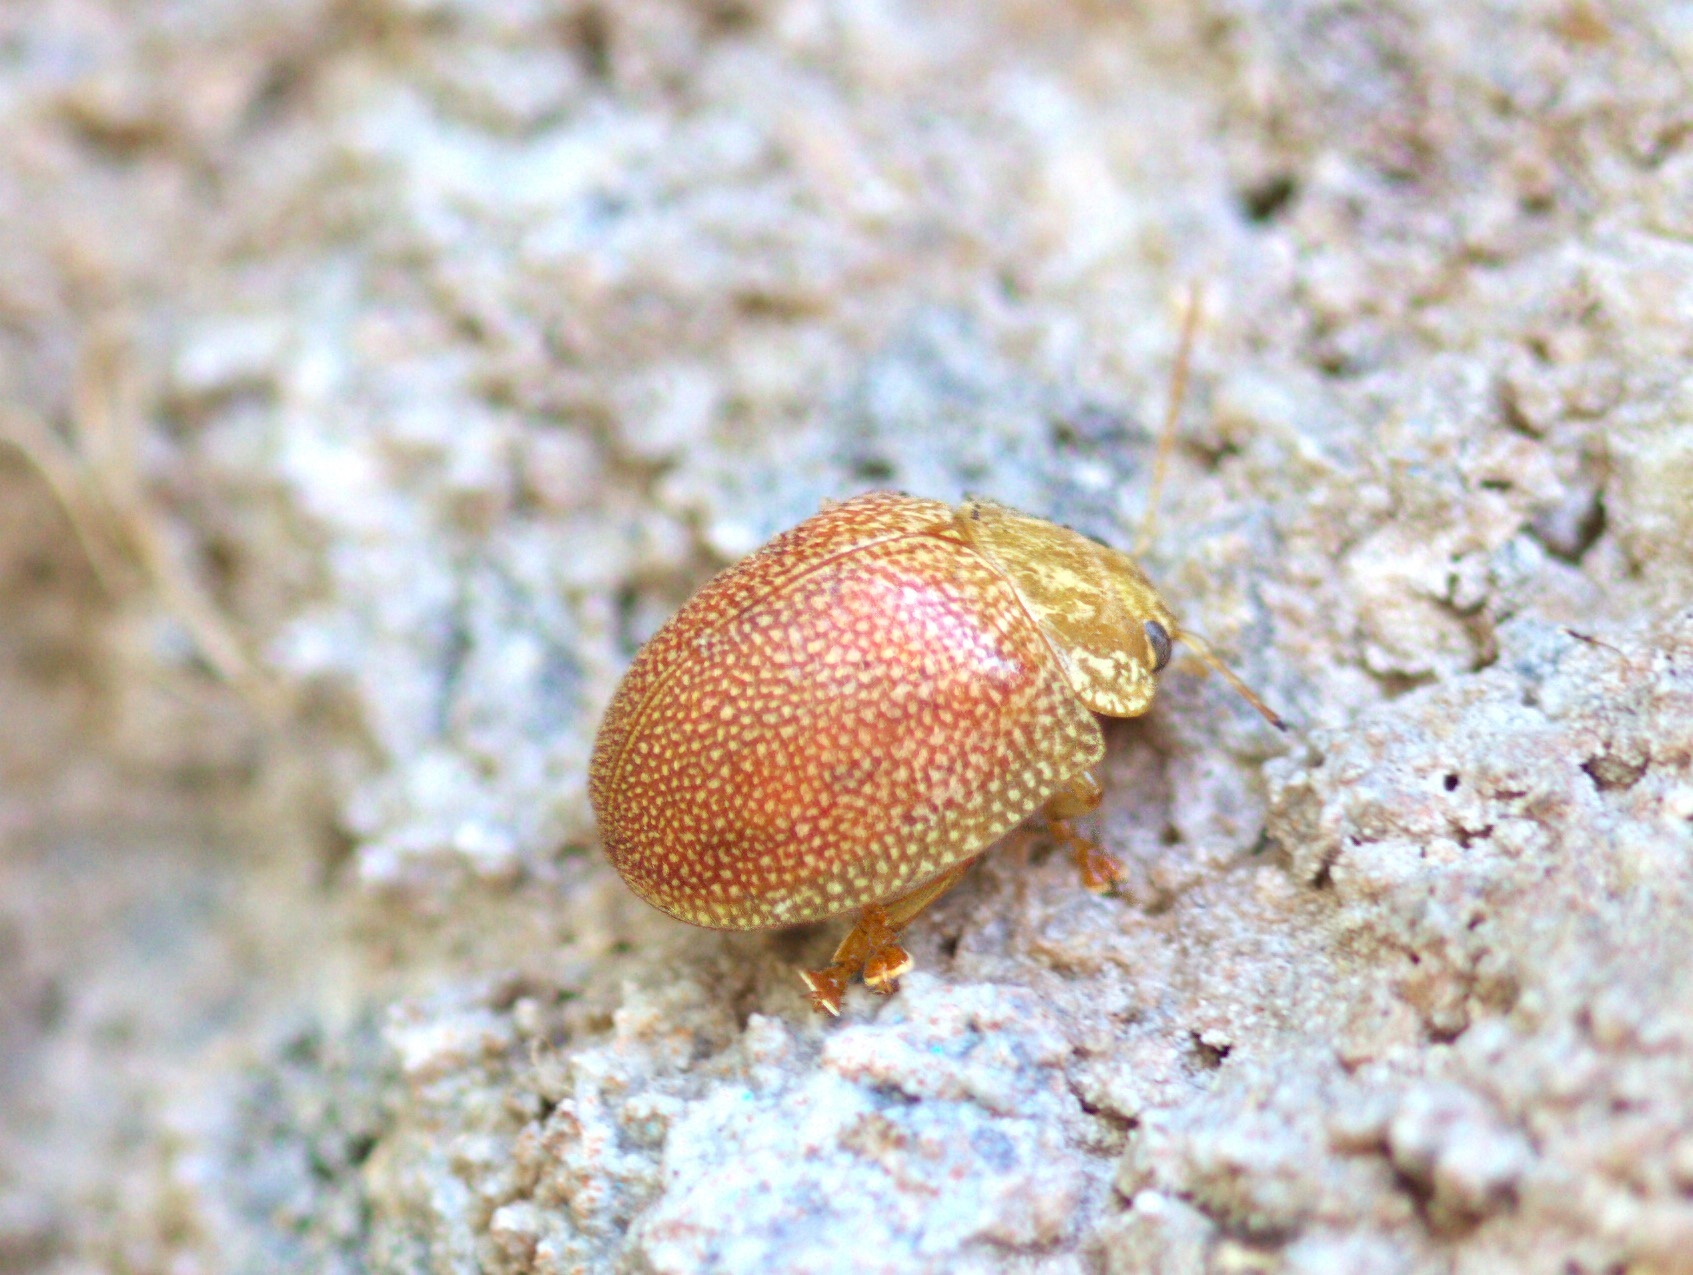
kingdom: Animalia
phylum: Arthropoda
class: Insecta
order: Coleoptera
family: Chrysomelidae
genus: Paropsis
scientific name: Paropsis
